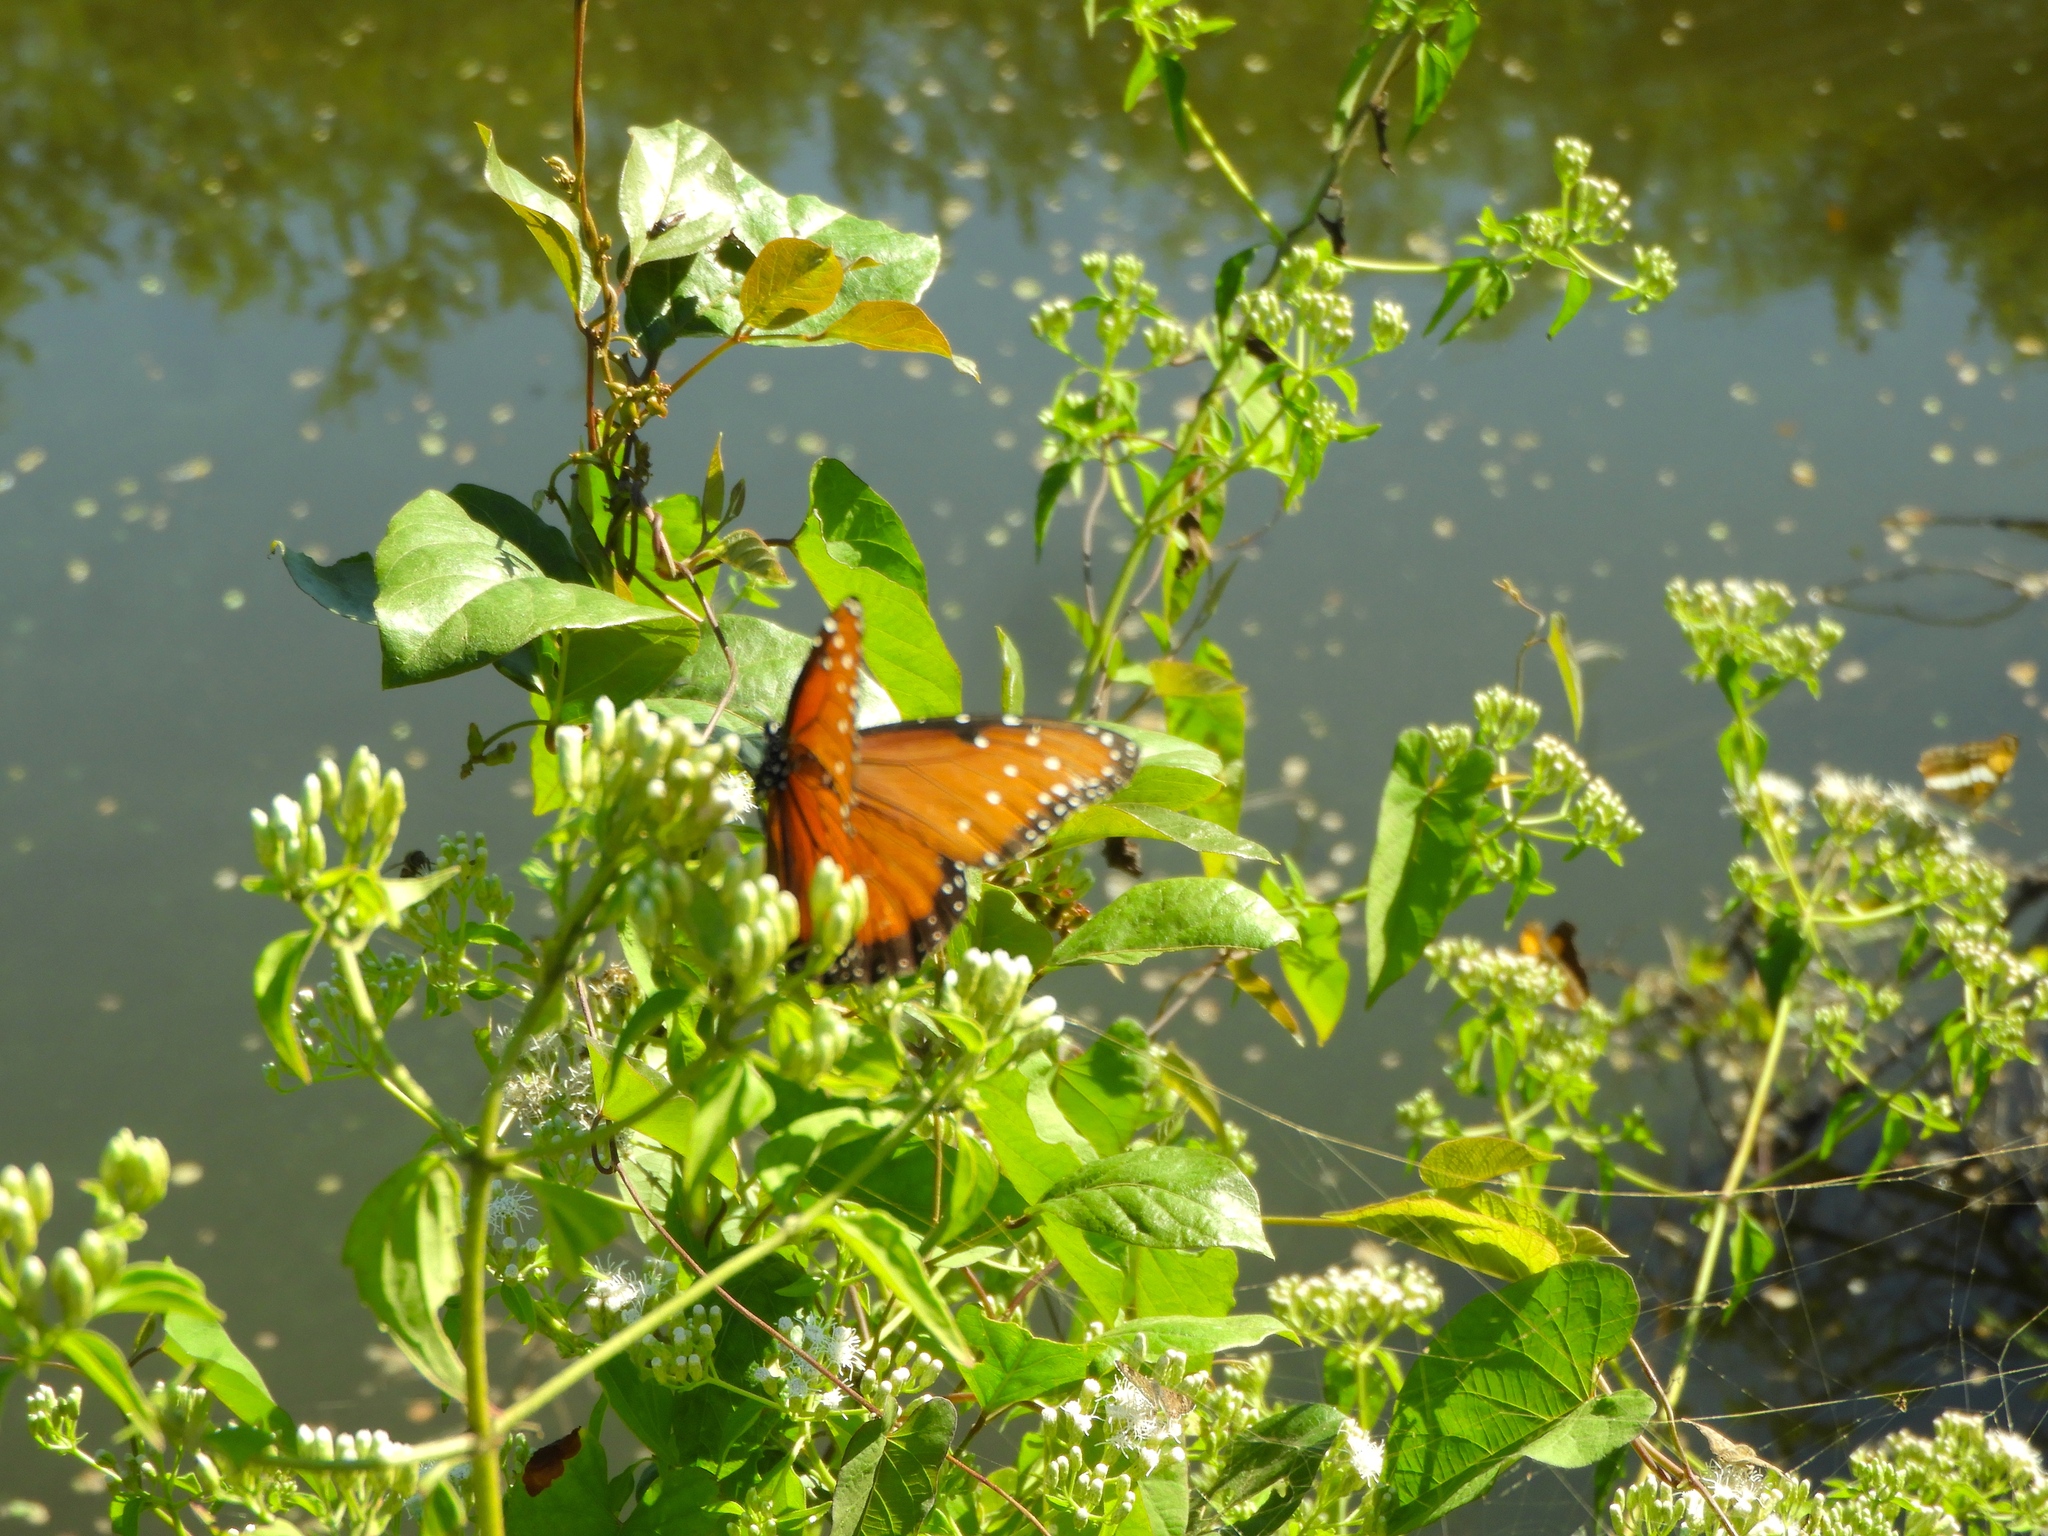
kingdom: Animalia
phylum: Arthropoda
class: Insecta
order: Lepidoptera
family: Nymphalidae
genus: Danaus
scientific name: Danaus gilippus
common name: Queen
